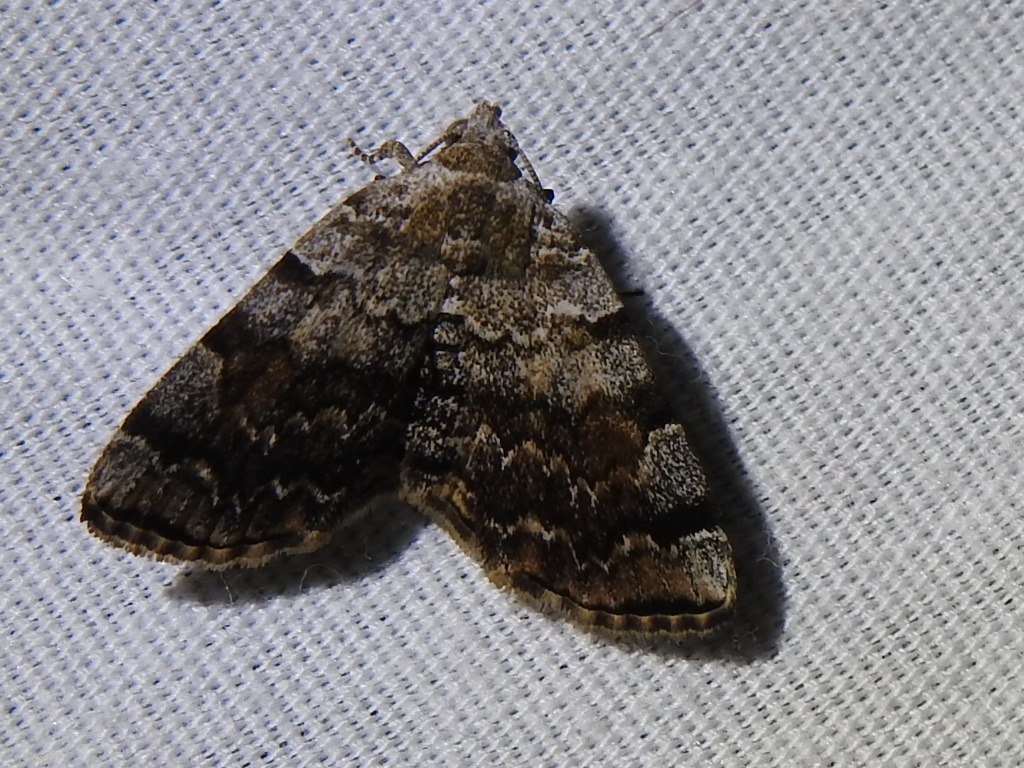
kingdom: Animalia
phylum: Arthropoda
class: Insecta
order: Lepidoptera
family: Erebidae
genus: Idia
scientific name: Idia americalis
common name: American idia moth
